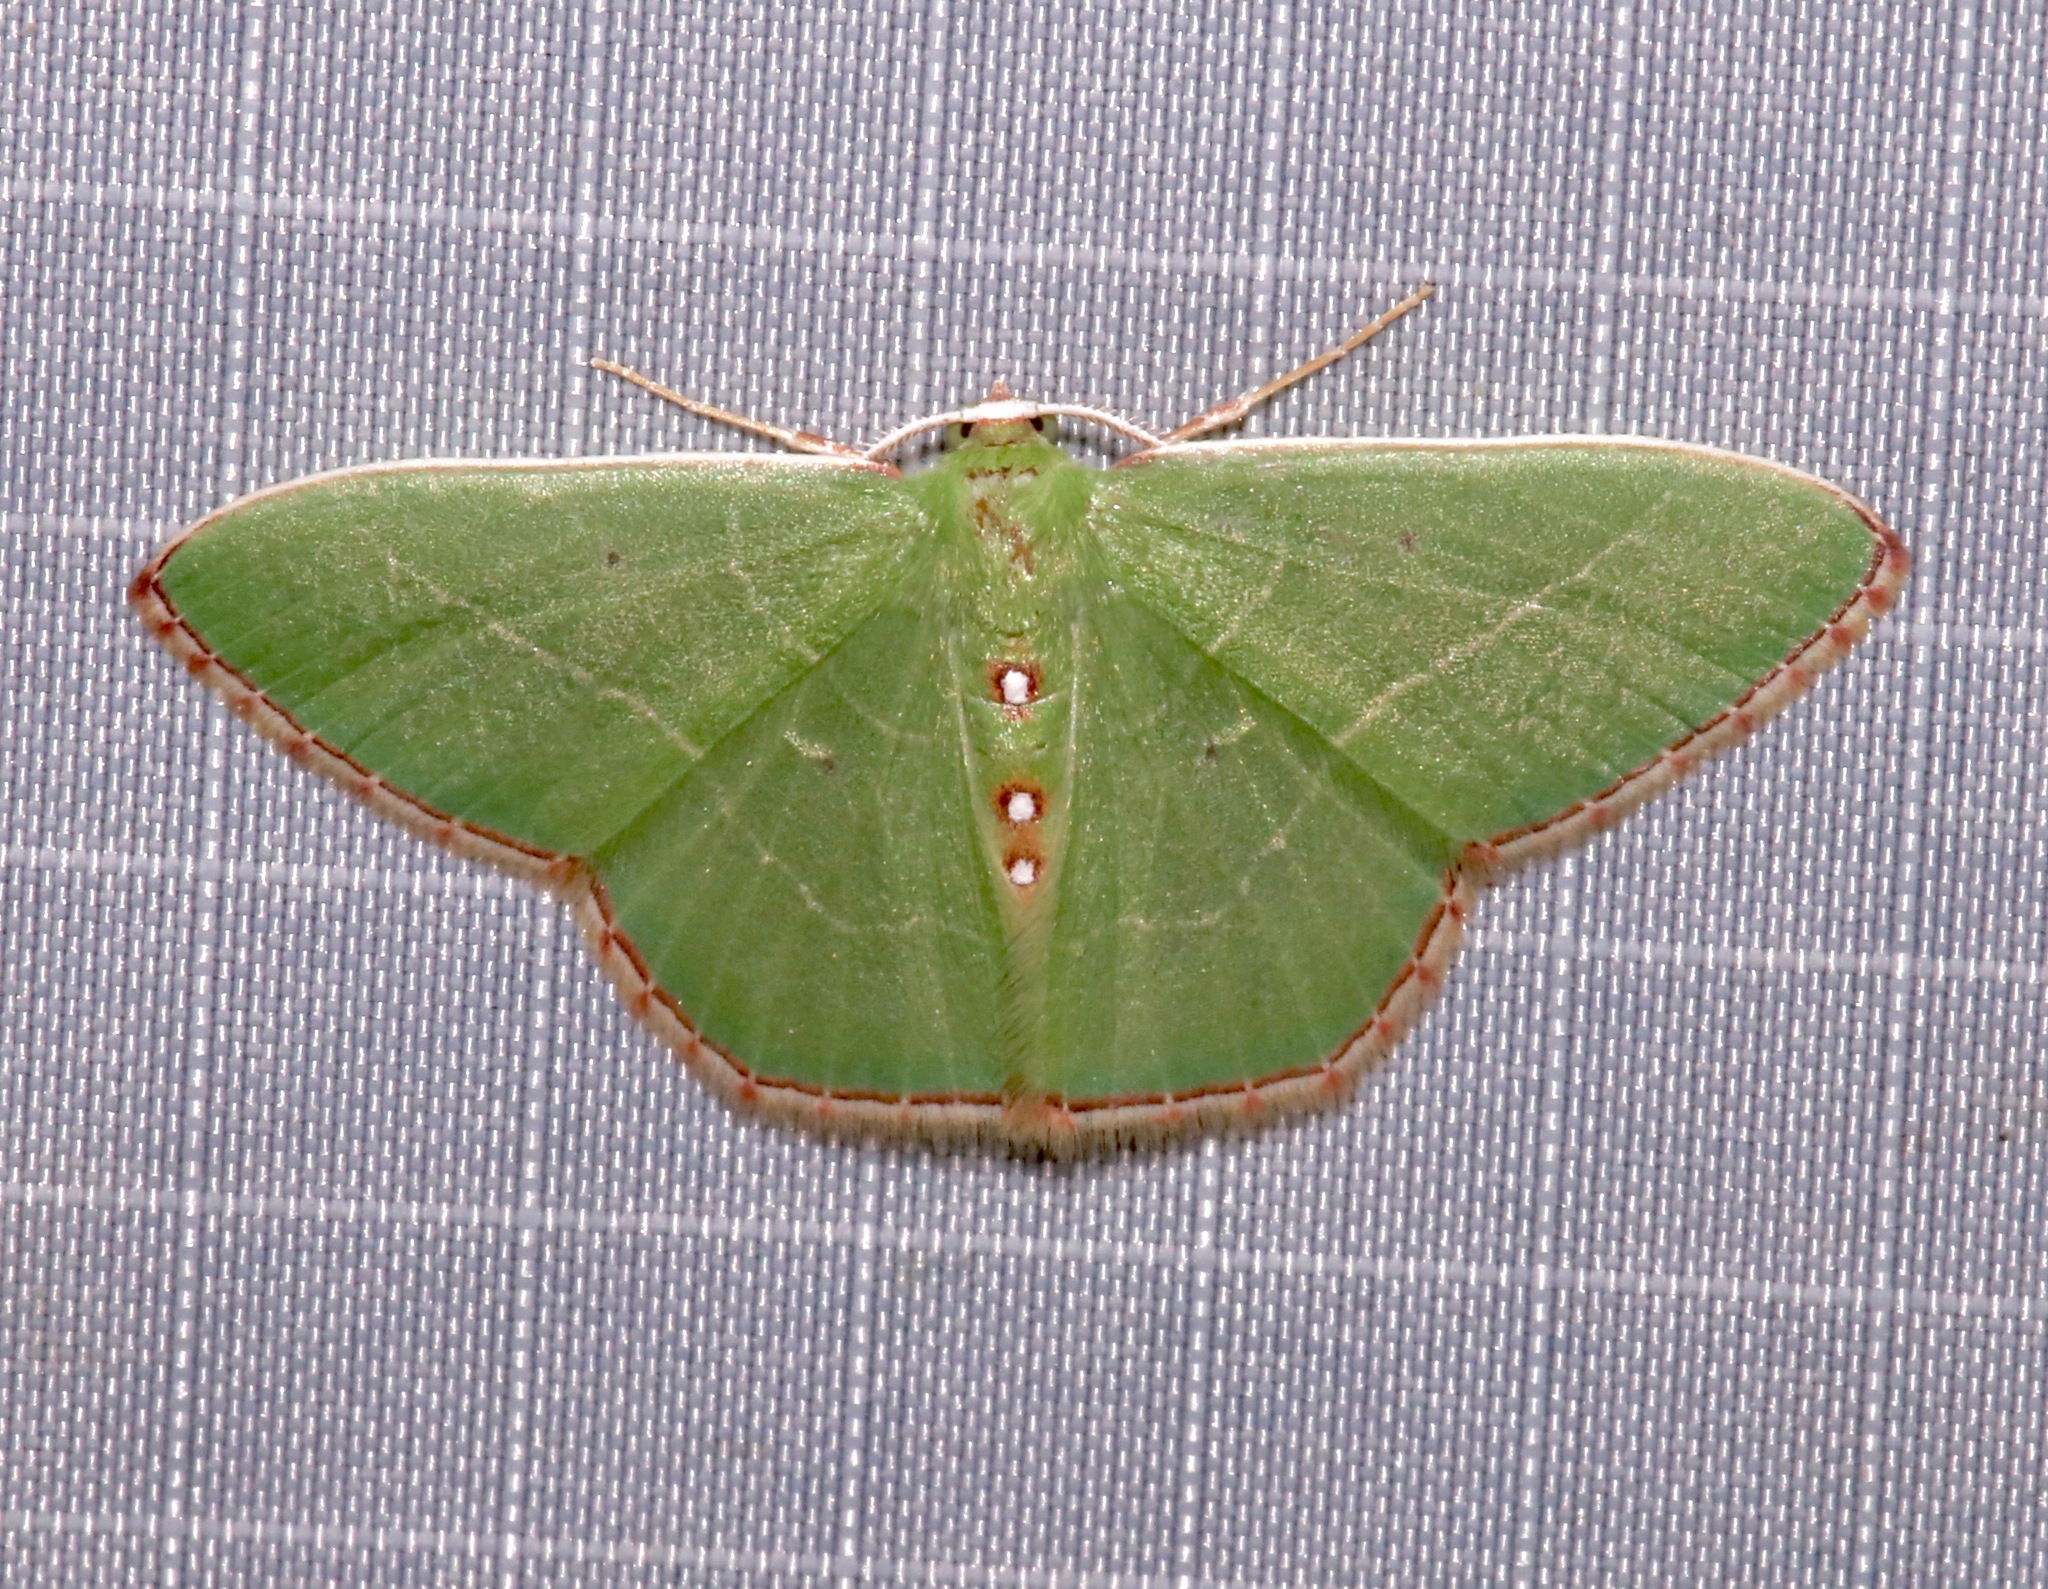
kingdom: Animalia
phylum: Arthropoda
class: Insecta
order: Lepidoptera
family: Geometridae
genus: Nemoria
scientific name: Nemoria zelotes
